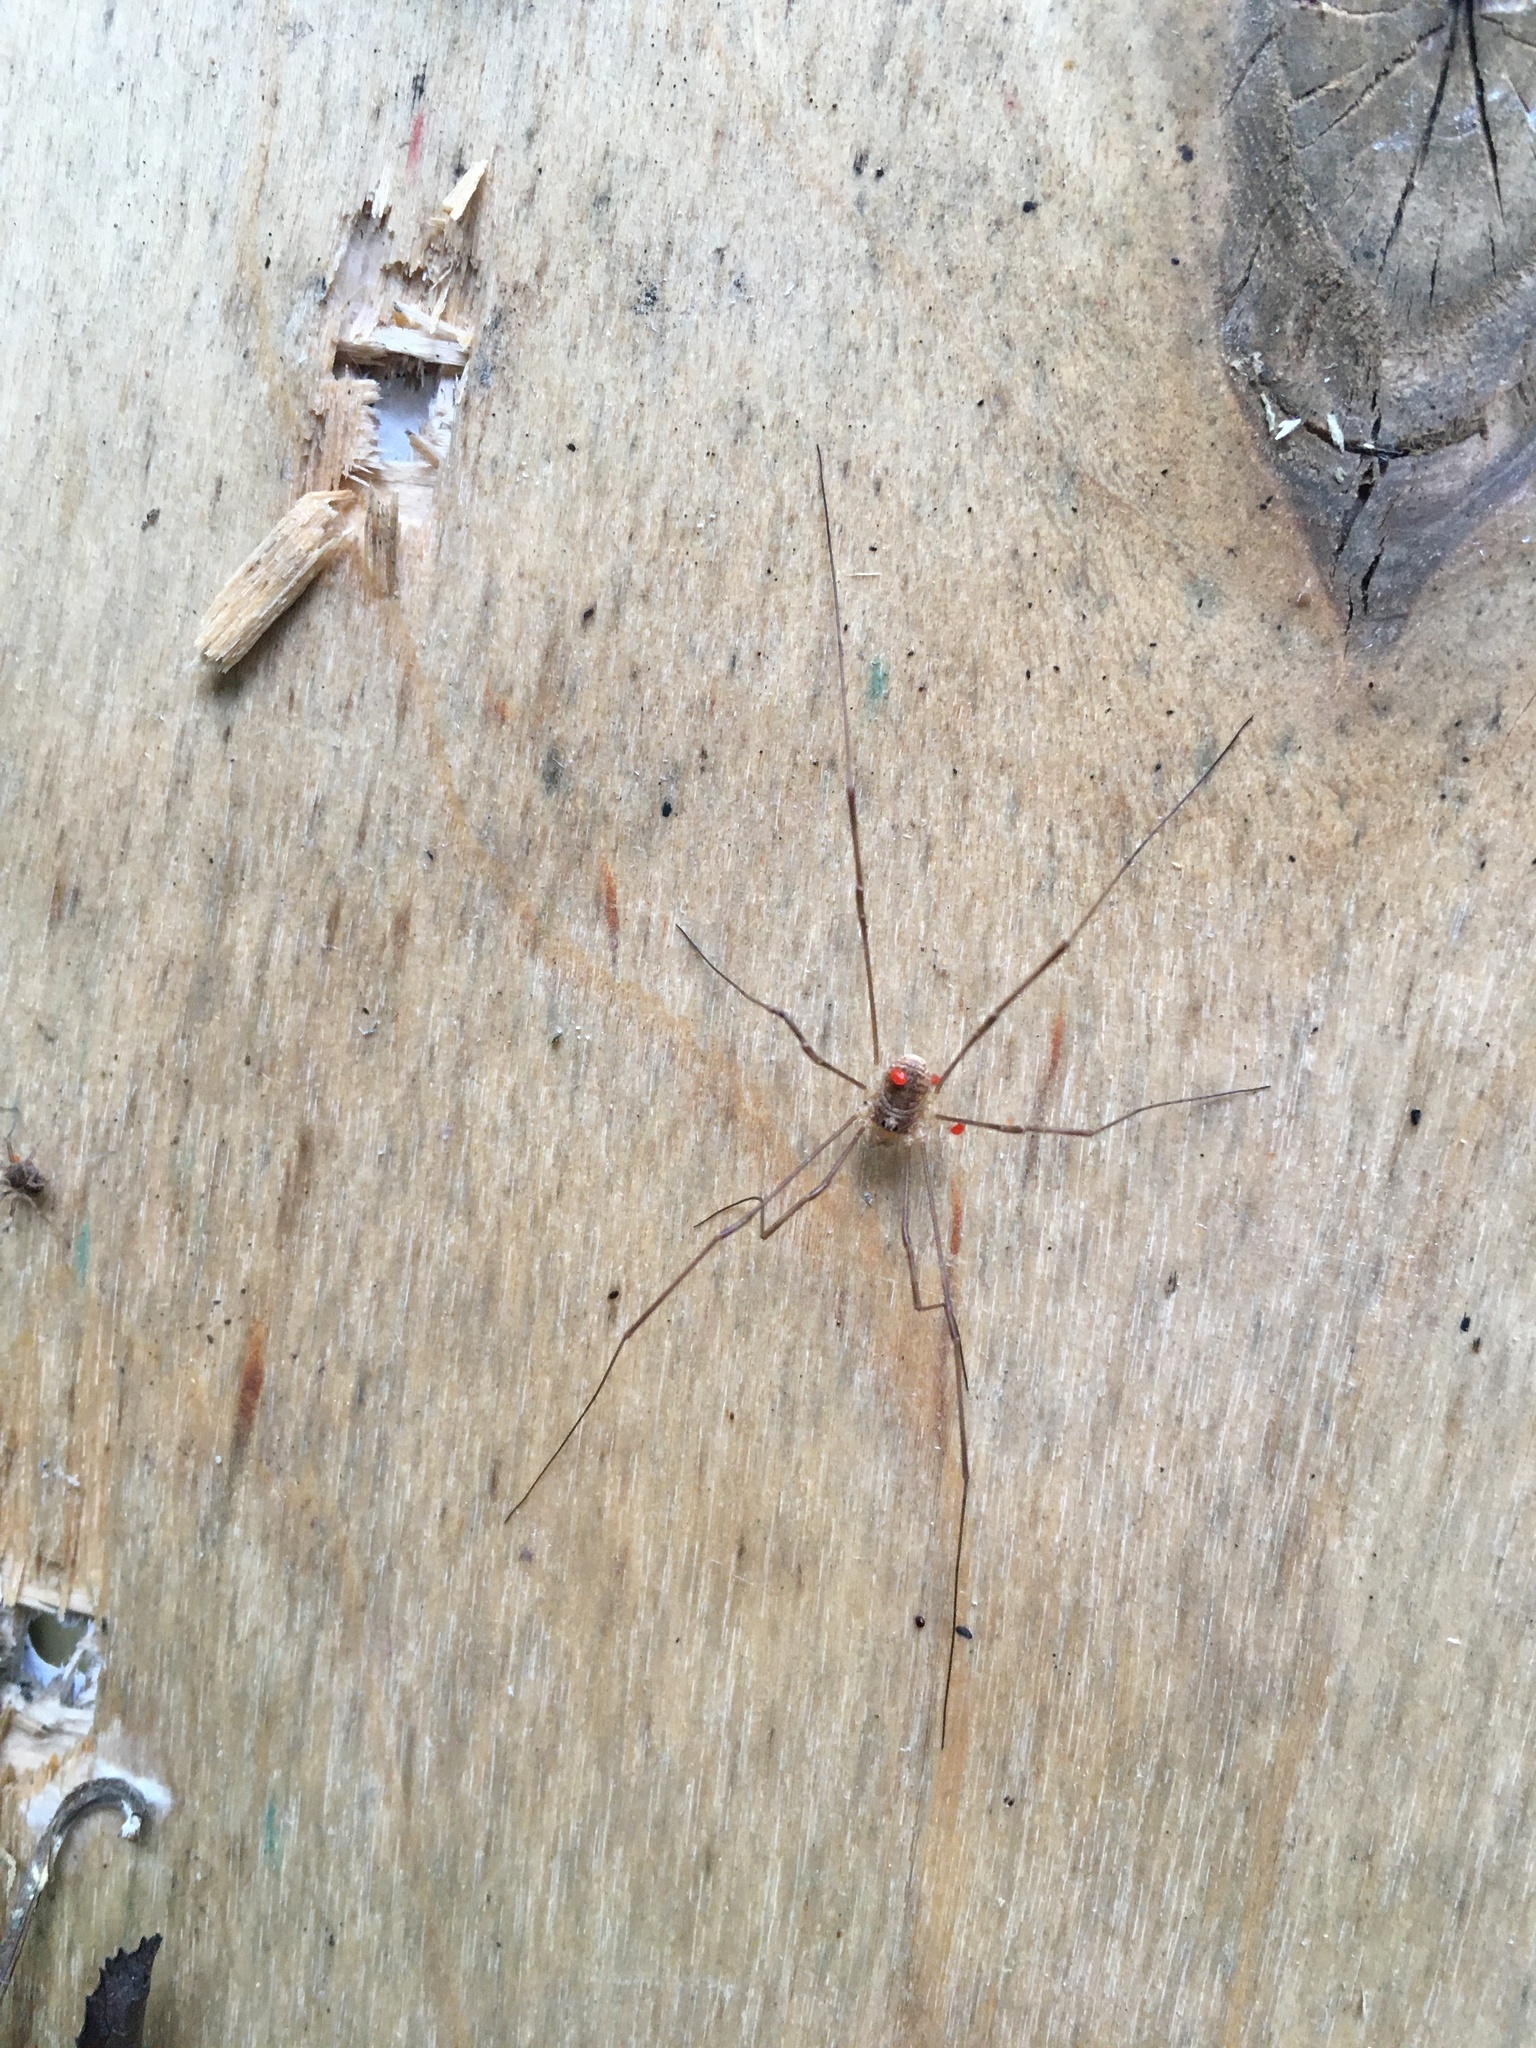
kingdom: Animalia
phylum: Arthropoda
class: Arachnida
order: Opiliones
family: Phalangiidae
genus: Rilaena
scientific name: Rilaena triangularis
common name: Spring harvestman
